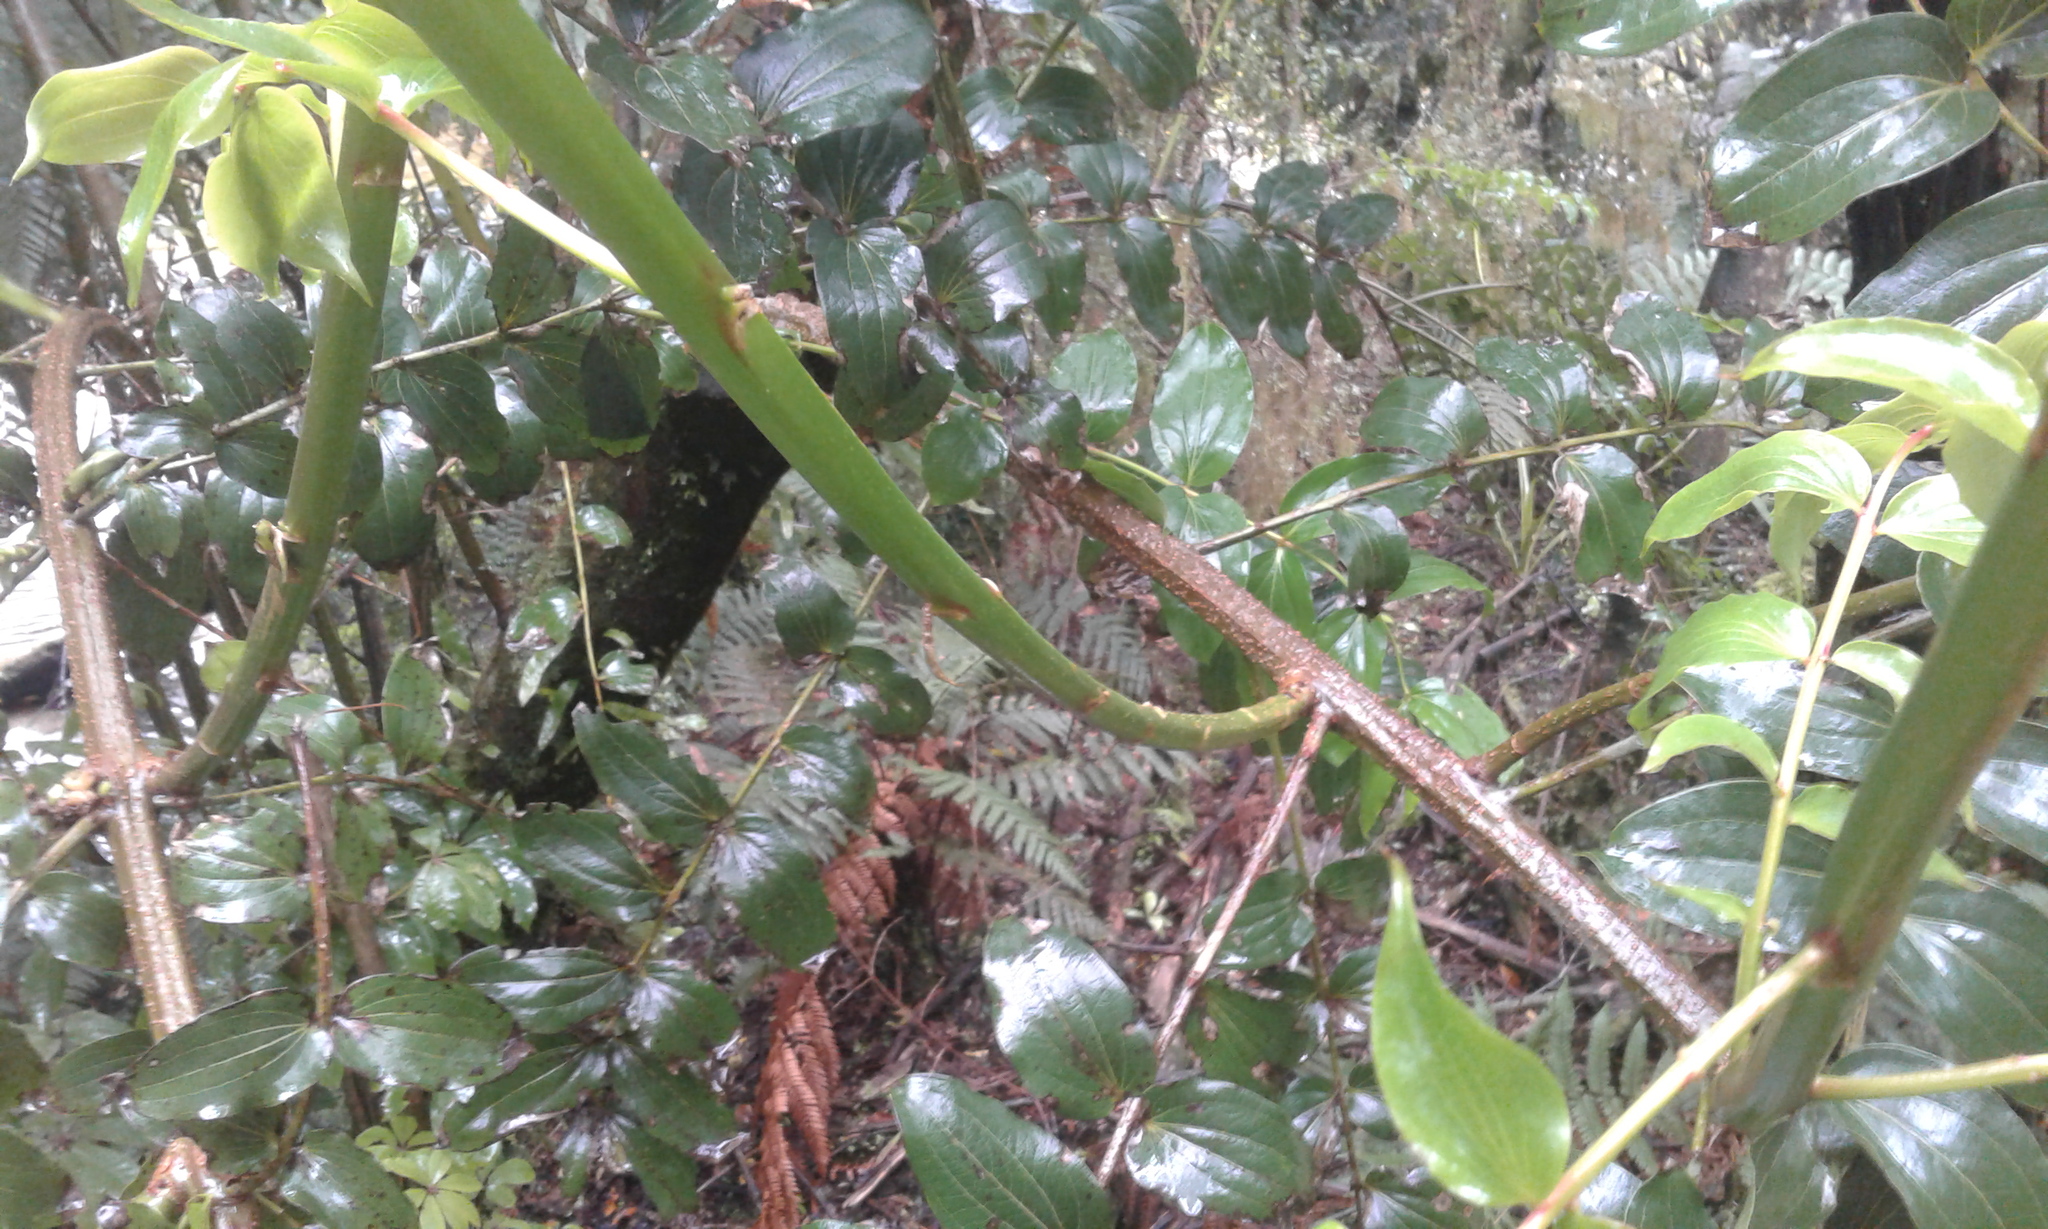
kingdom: Plantae
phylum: Tracheophyta
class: Magnoliopsida
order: Cucurbitales
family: Coriariaceae
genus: Coriaria
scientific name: Coriaria arborea
